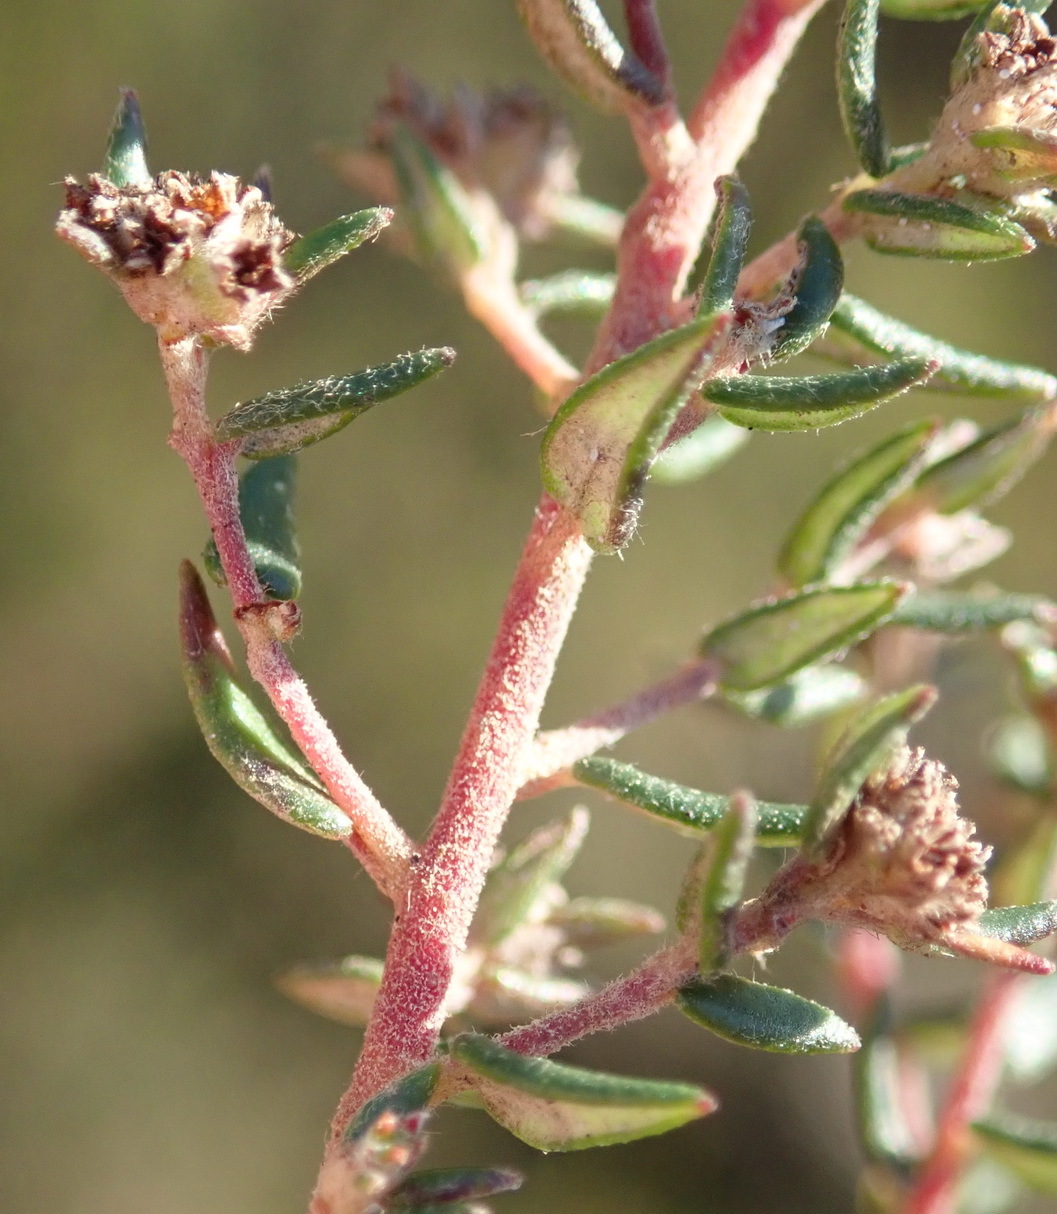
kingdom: Plantae
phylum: Tracheophyta
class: Magnoliopsida
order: Rosales
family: Rhamnaceae
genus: Phylica
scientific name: Phylica parviflora
